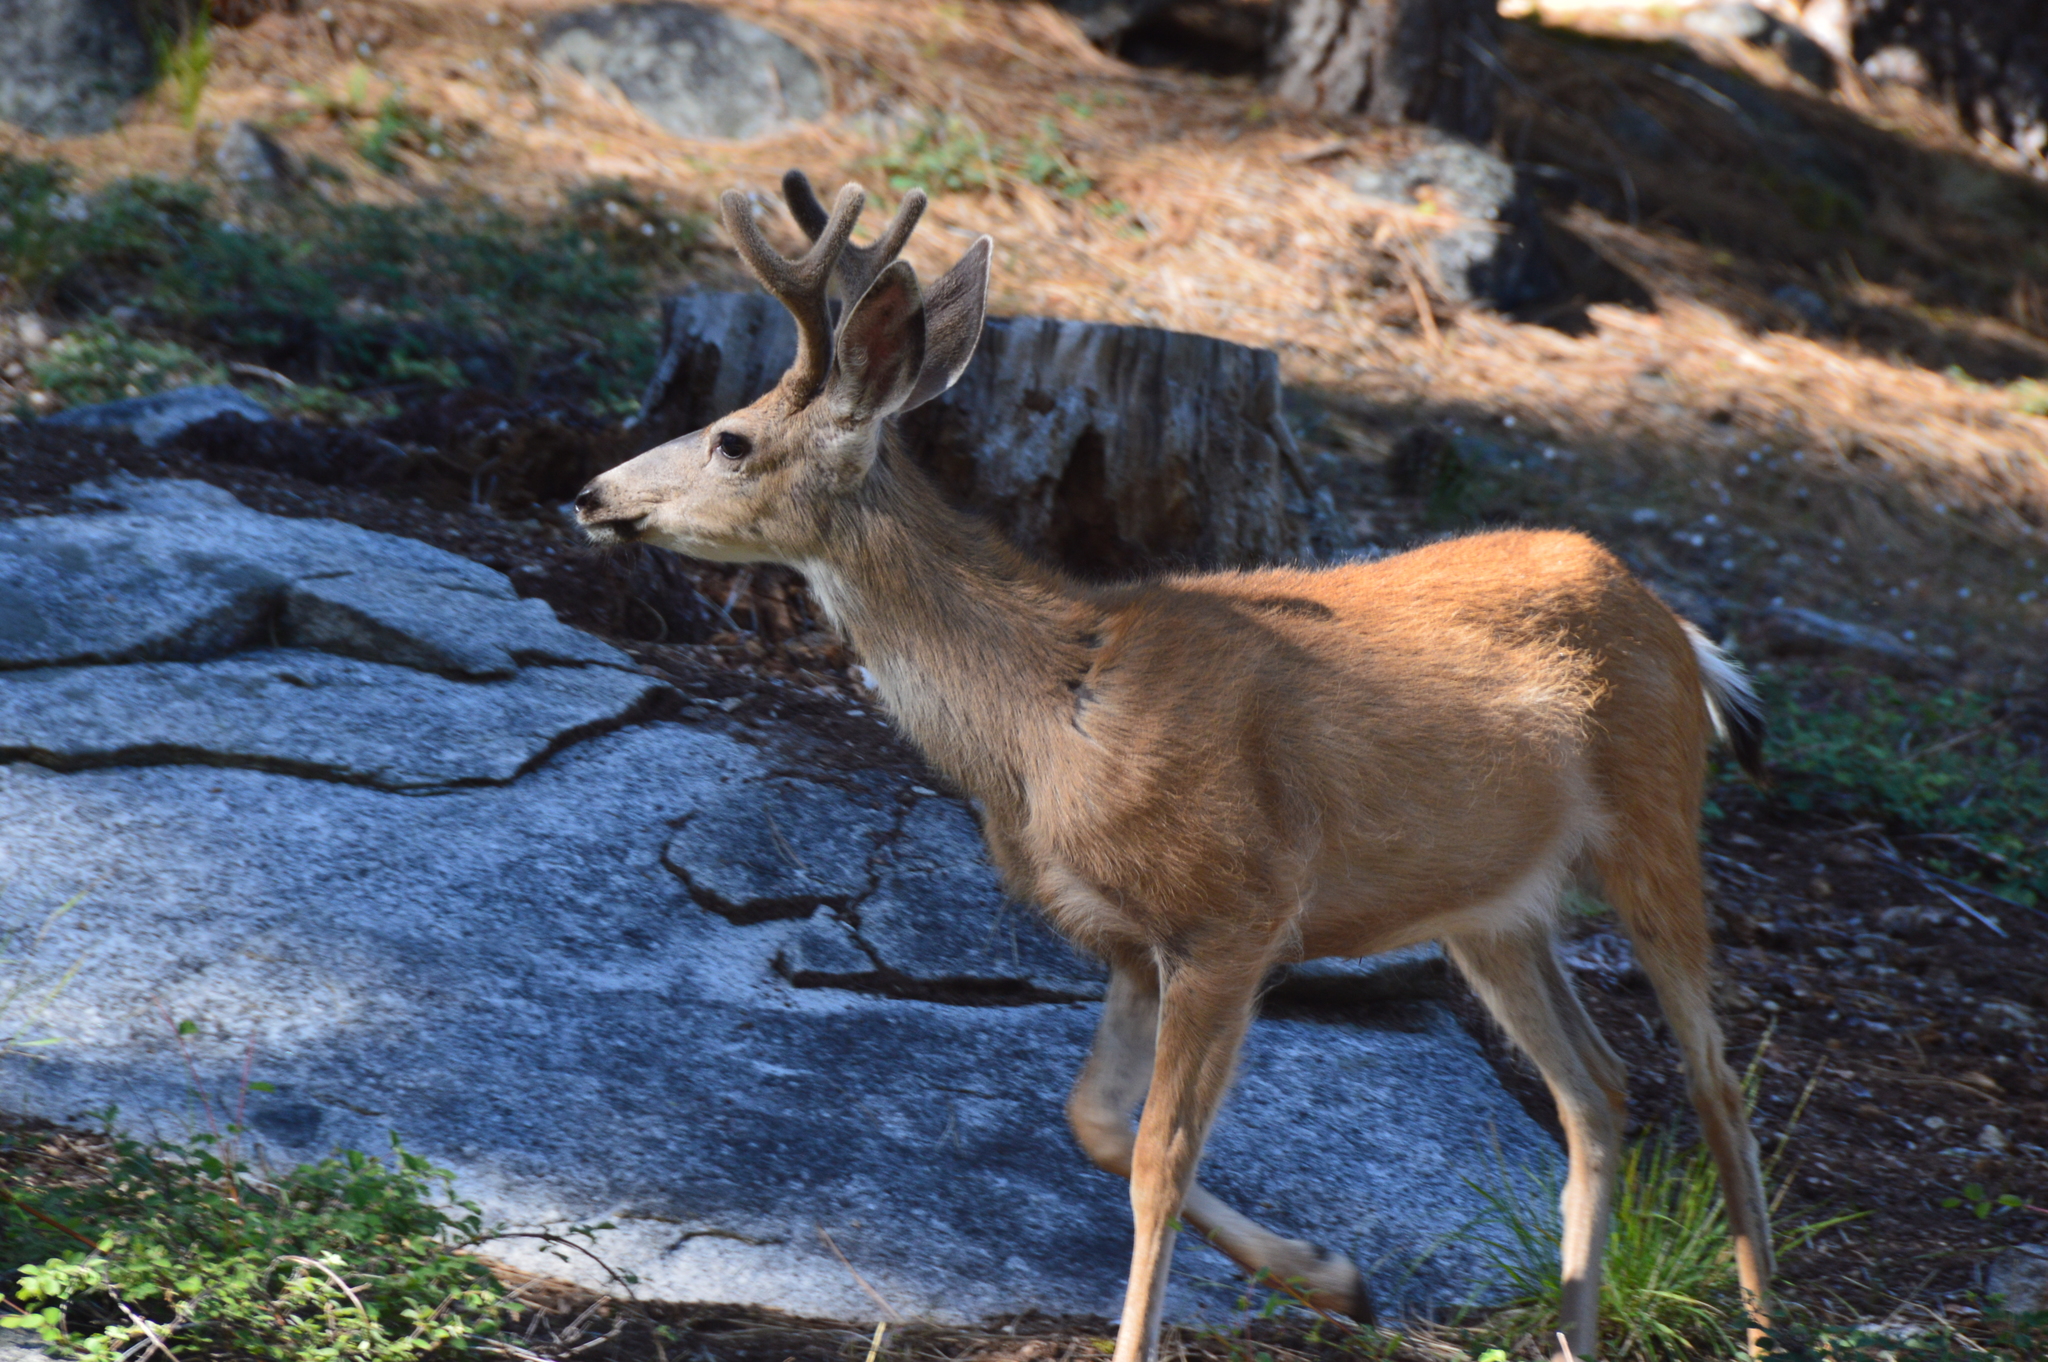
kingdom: Animalia
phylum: Chordata
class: Mammalia
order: Artiodactyla
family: Cervidae
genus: Odocoileus
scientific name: Odocoileus hemionus
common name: Mule deer
